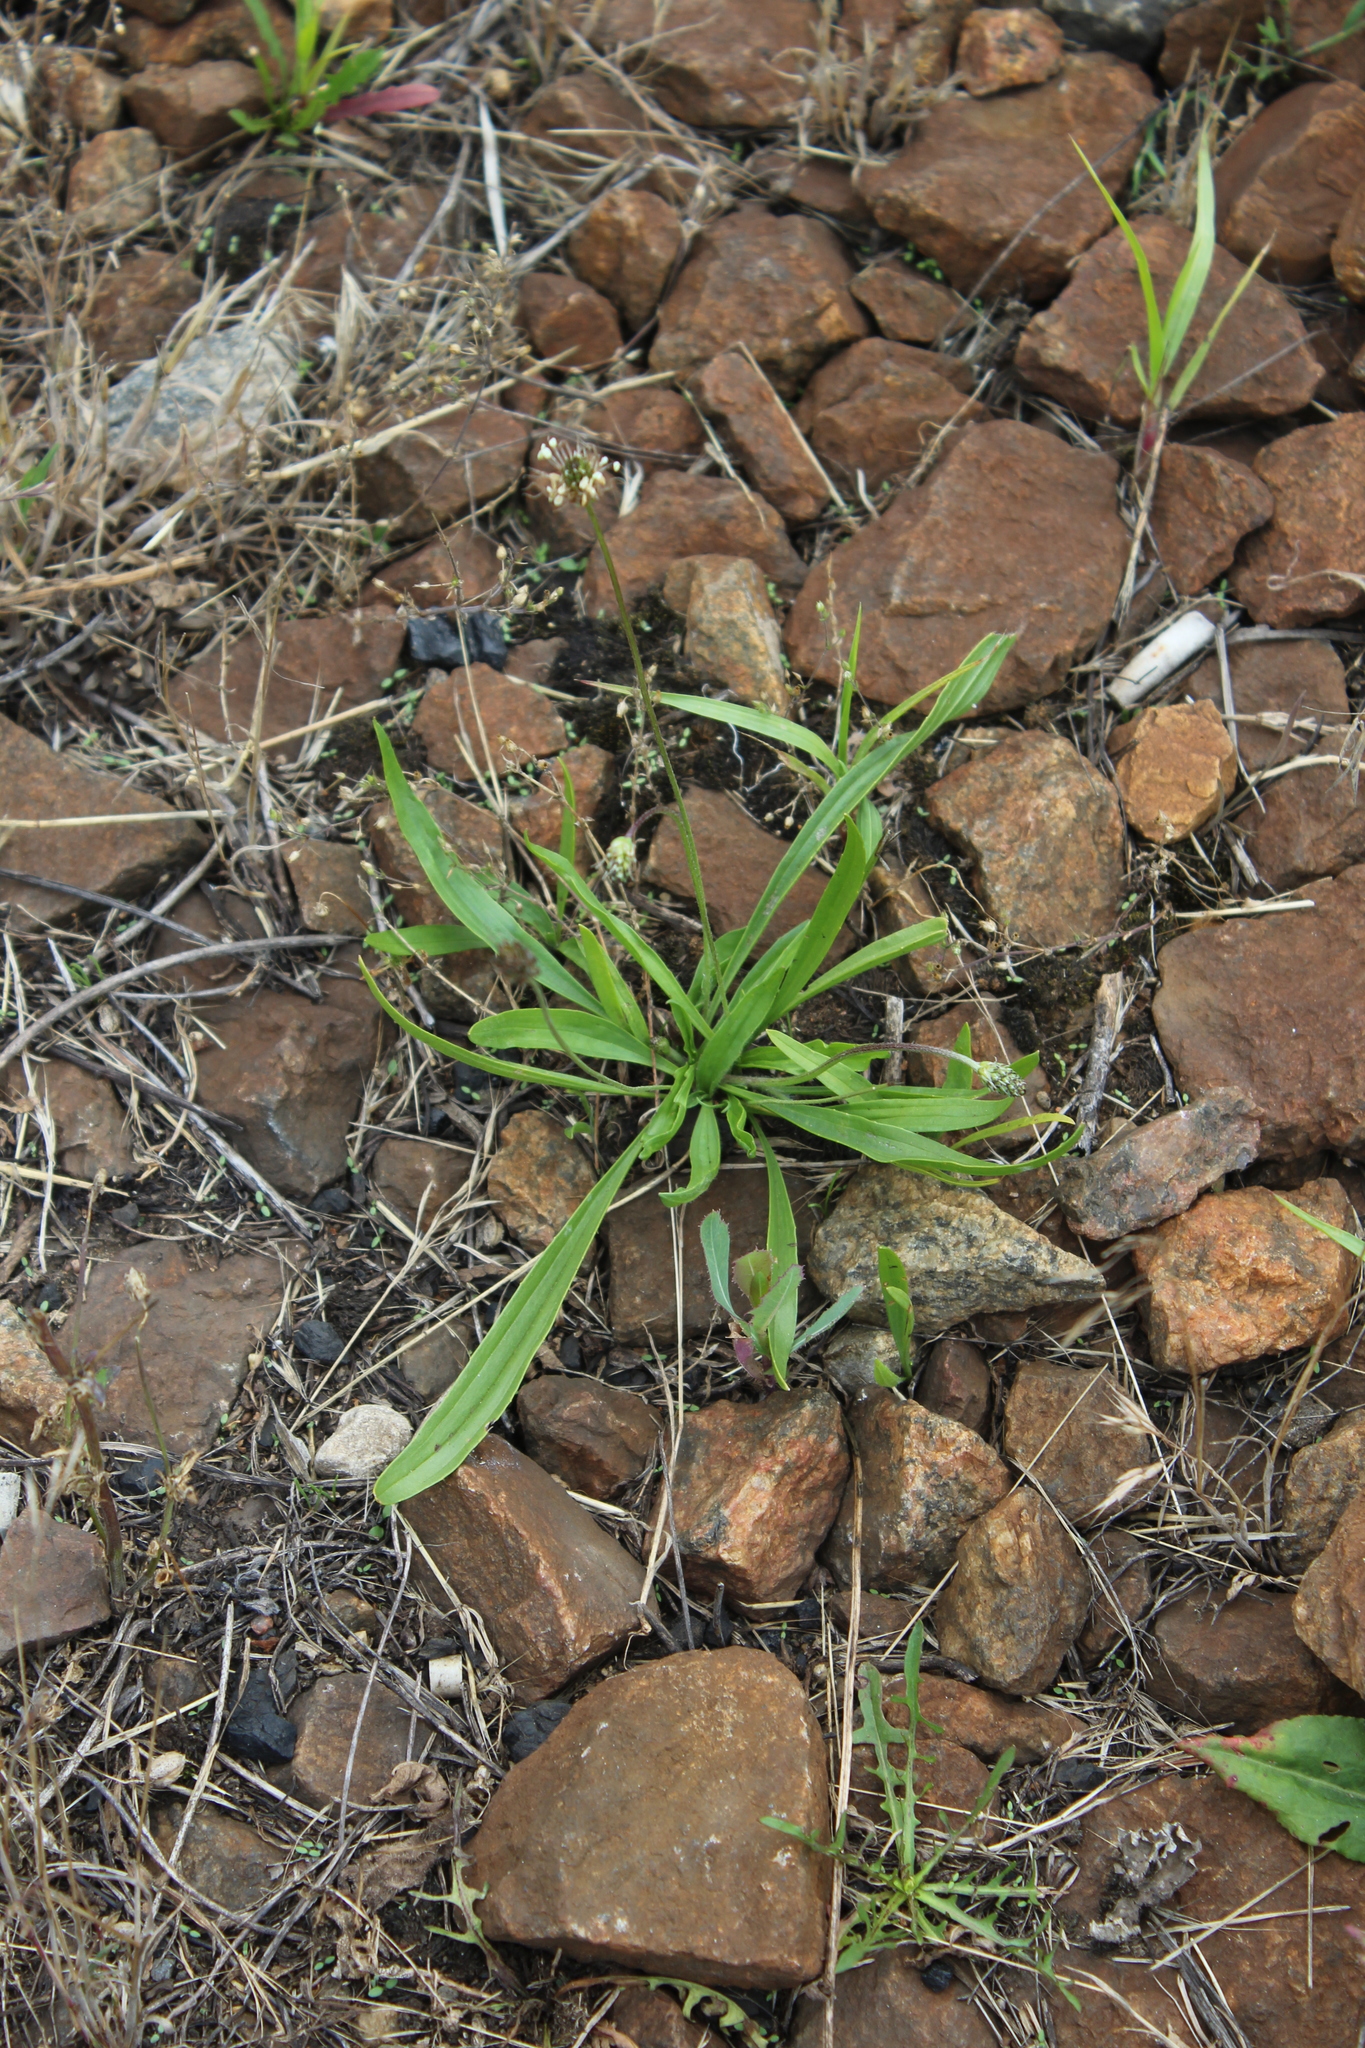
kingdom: Plantae
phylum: Tracheophyta
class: Magnoliopsida
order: Lamiales
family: Plantaginaceae
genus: Plantago
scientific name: Plantago lanceolata
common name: Ribwort plantain
